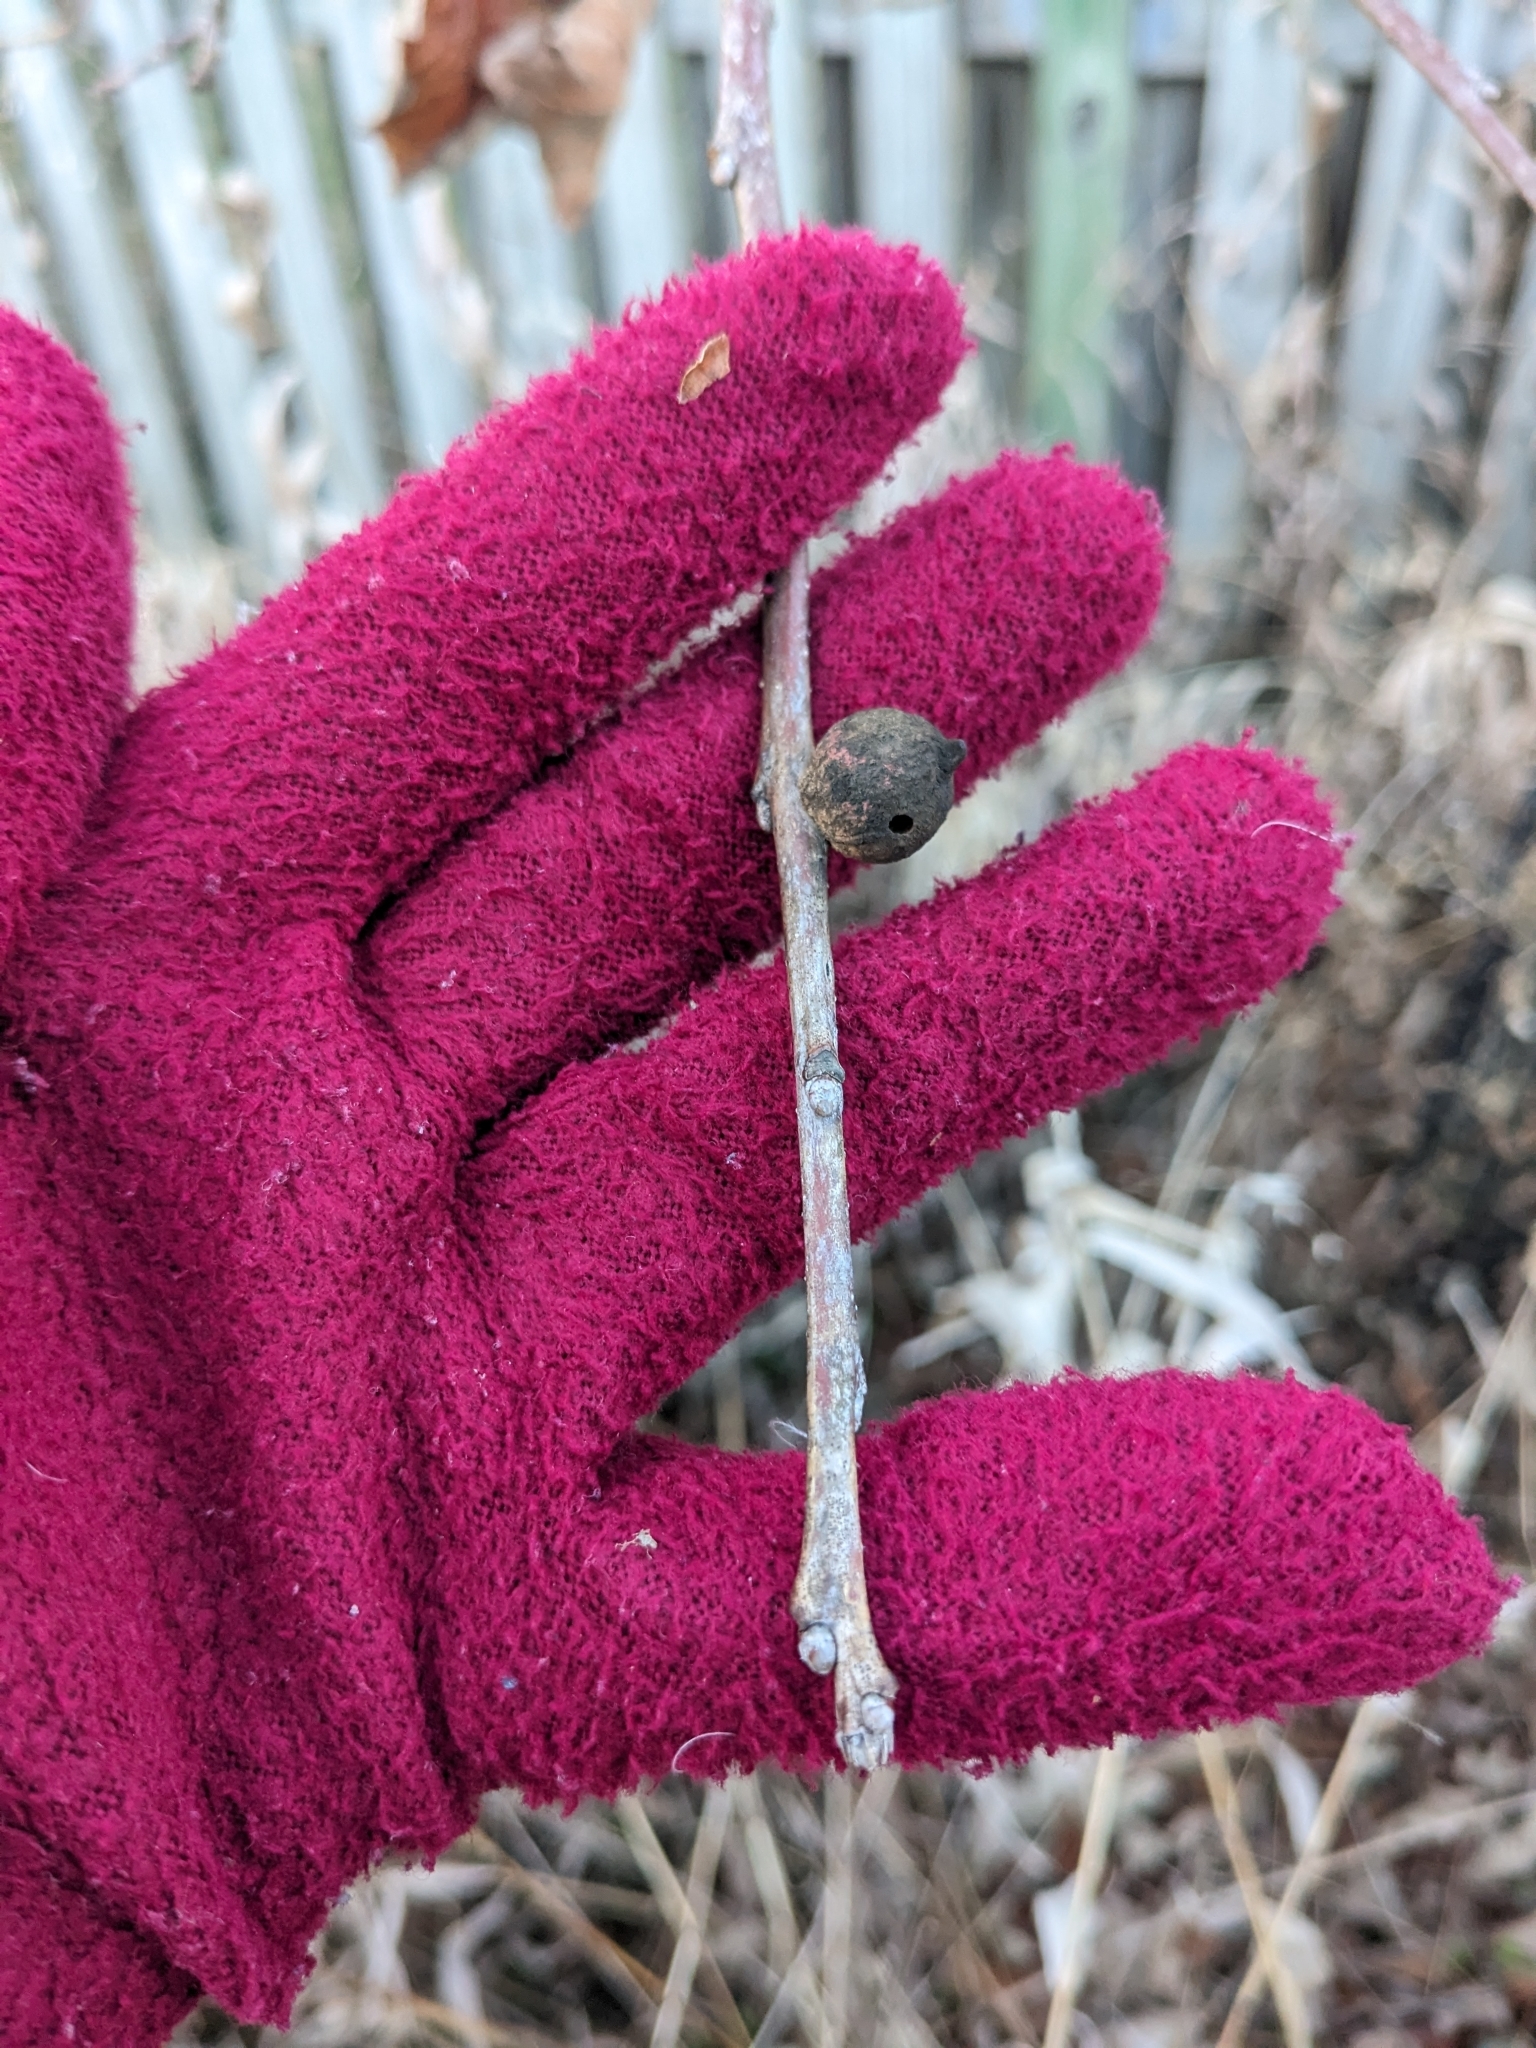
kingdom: Animalia
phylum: Arthropoda
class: Insecta
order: Hymenoptera
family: Cynipidae
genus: Disholcaspis
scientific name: Disholcaspis
